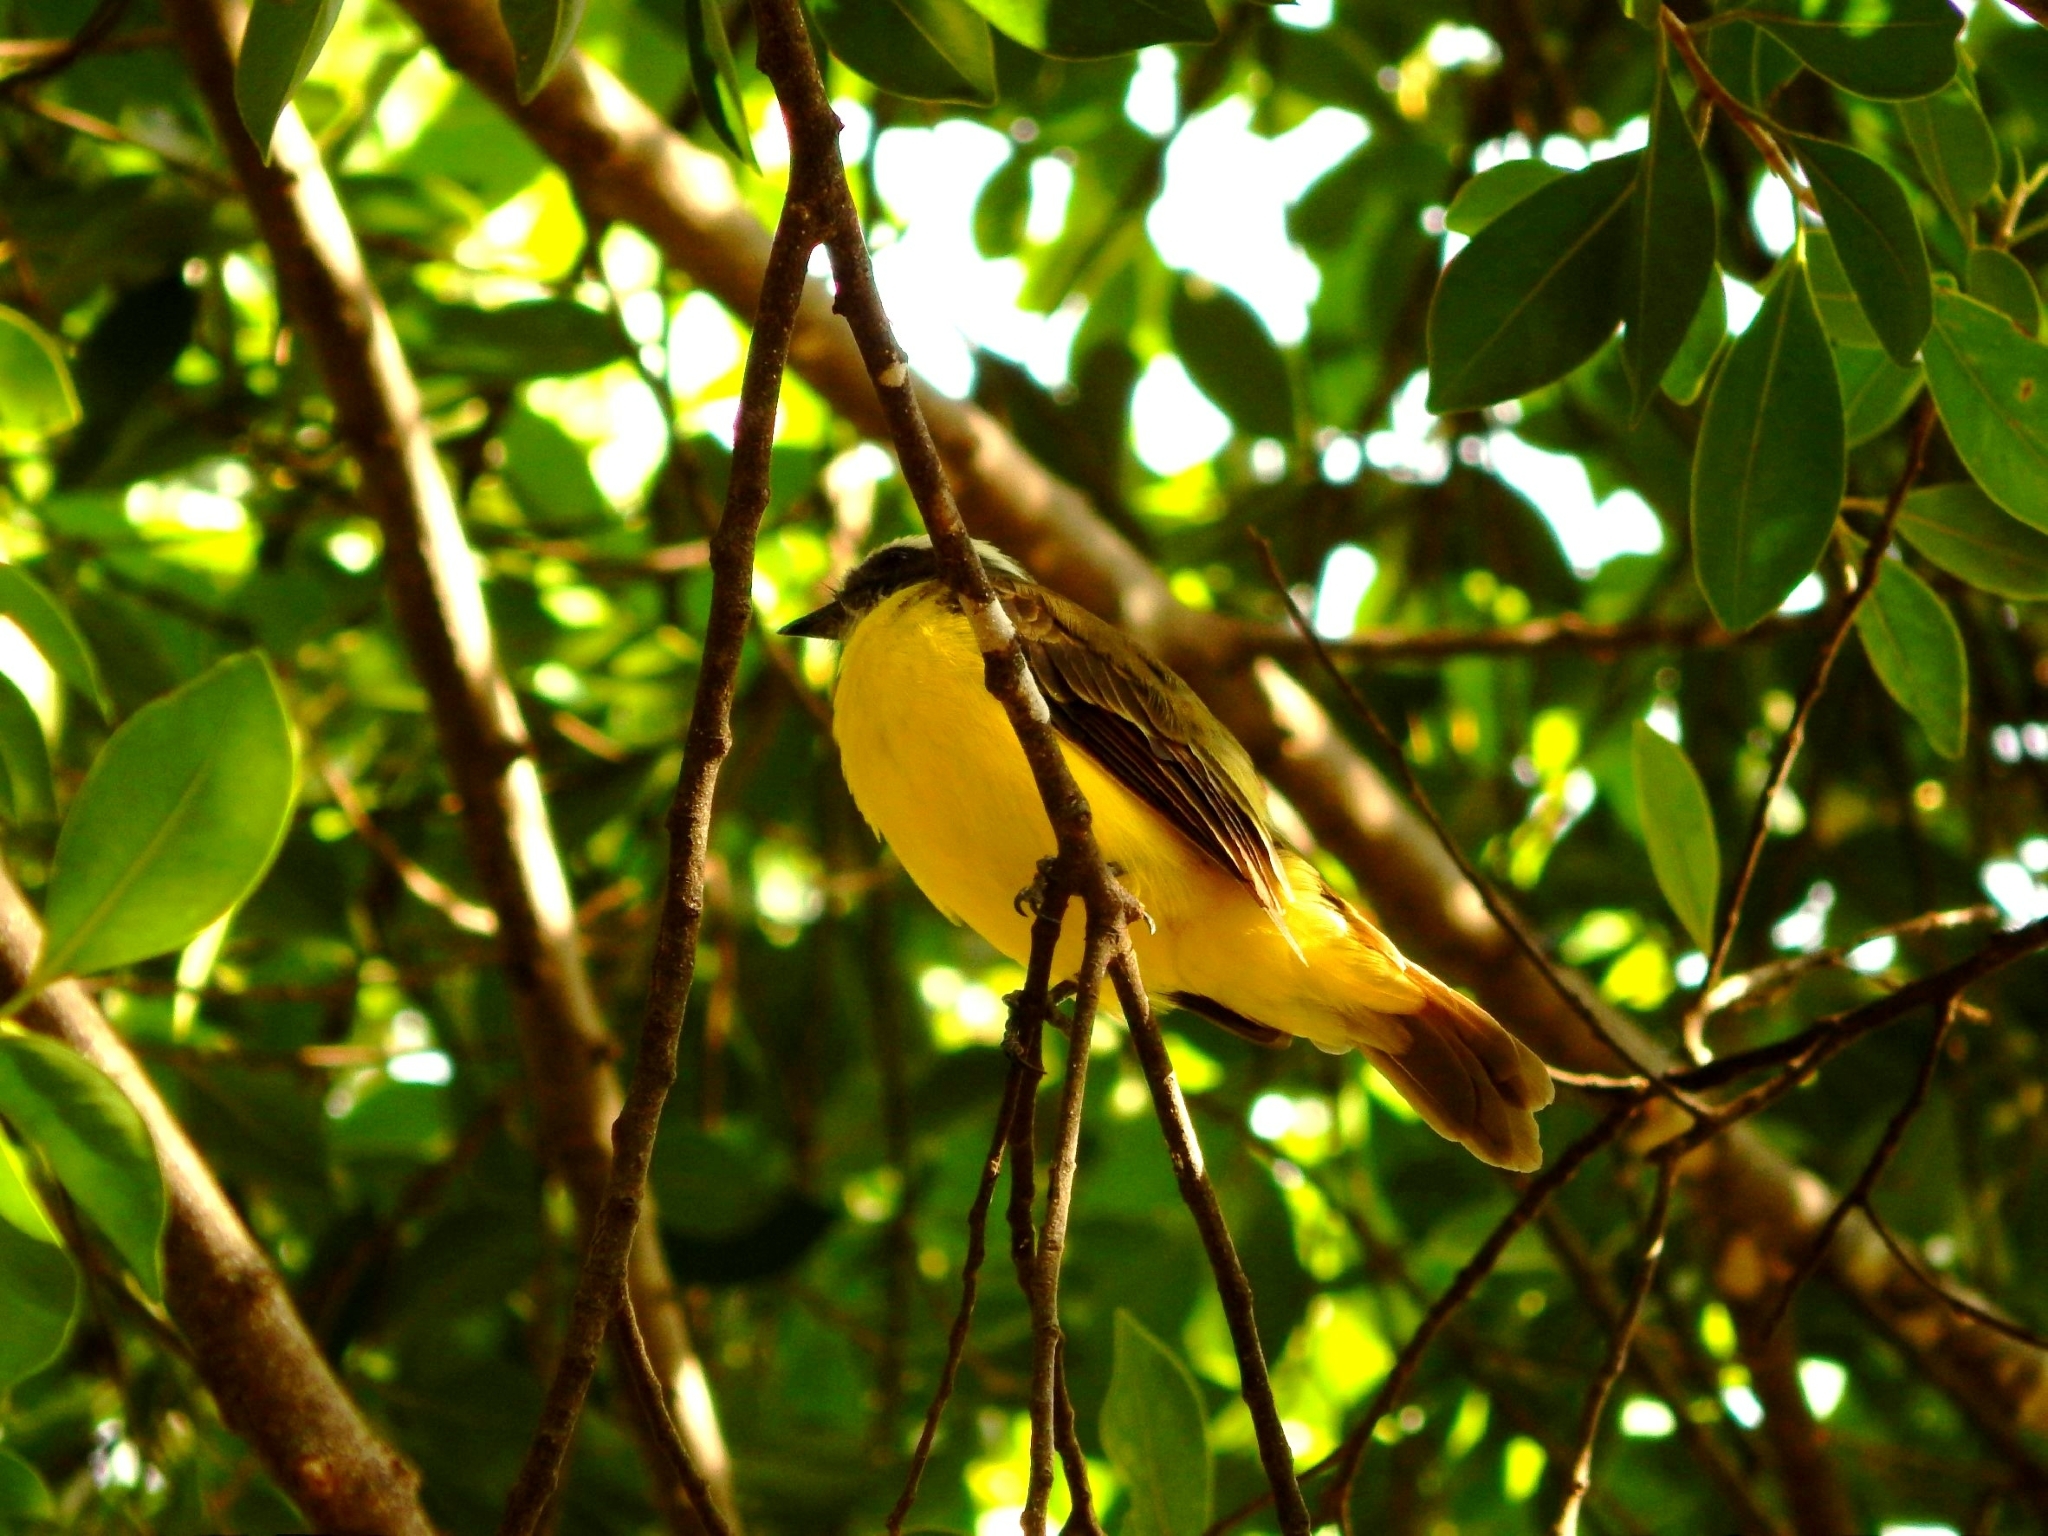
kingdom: Animalia
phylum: Chordata
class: Aves
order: Passeriformes
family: Tyrannidae
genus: Myiozetetes
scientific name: Myiozetetes similis
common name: Social flycatcher
